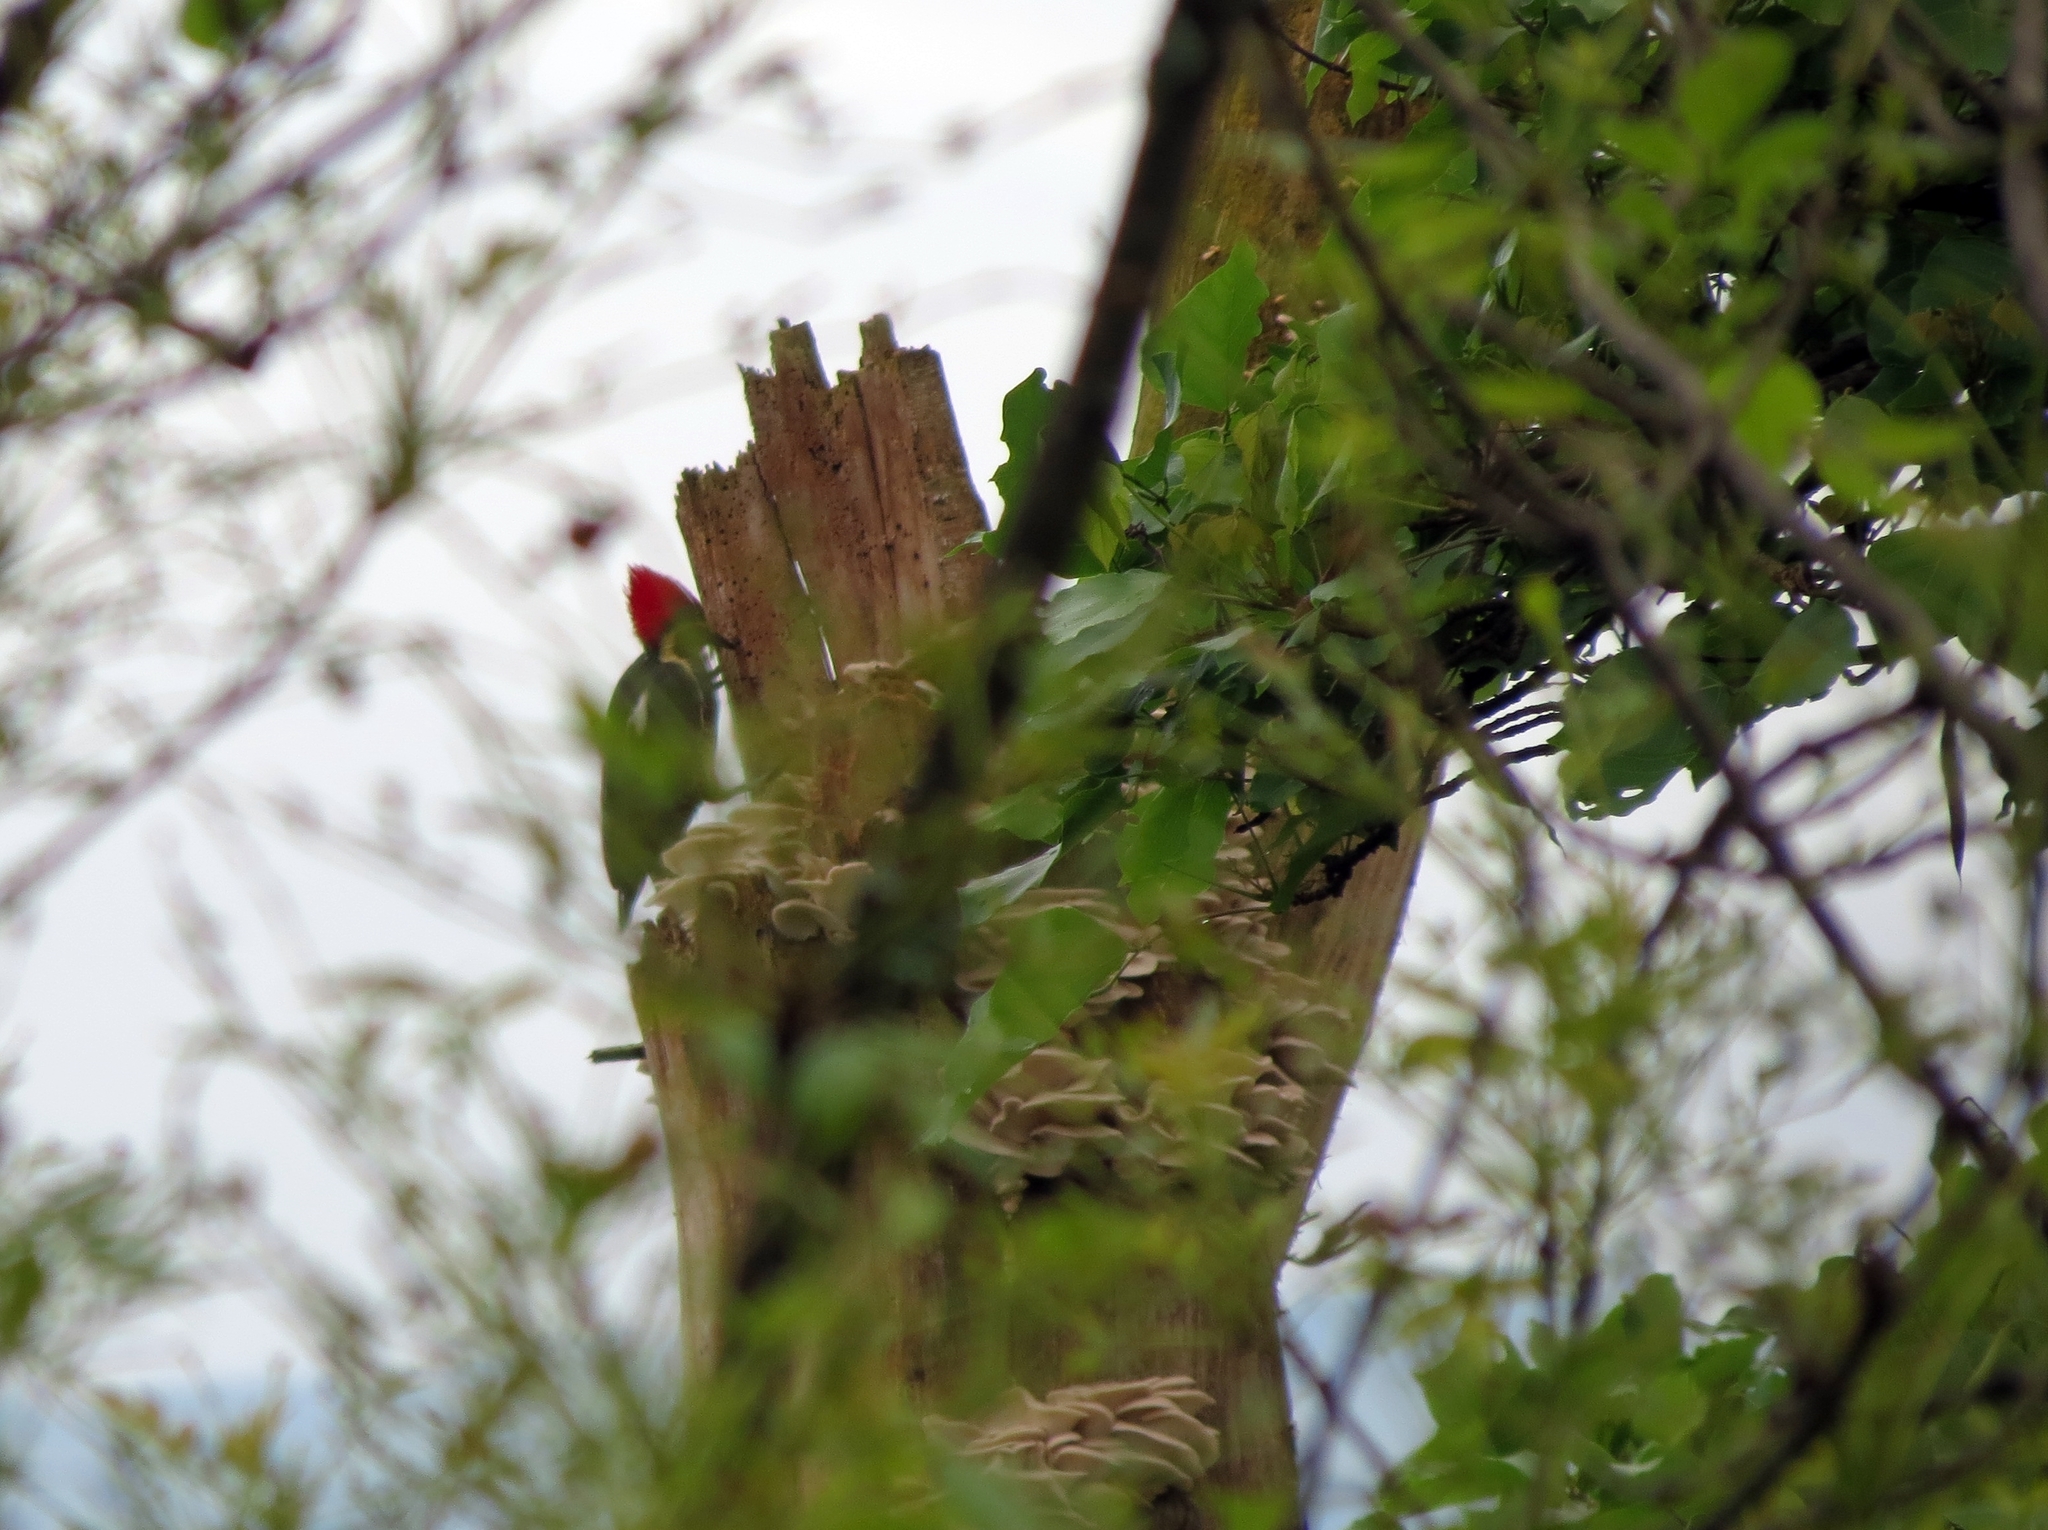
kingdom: Animalia
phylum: Chordata
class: Aves
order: Piciformes
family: Picidae
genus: Dryocopus
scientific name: Dryocopus lineatus
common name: Lineated woodpecker
